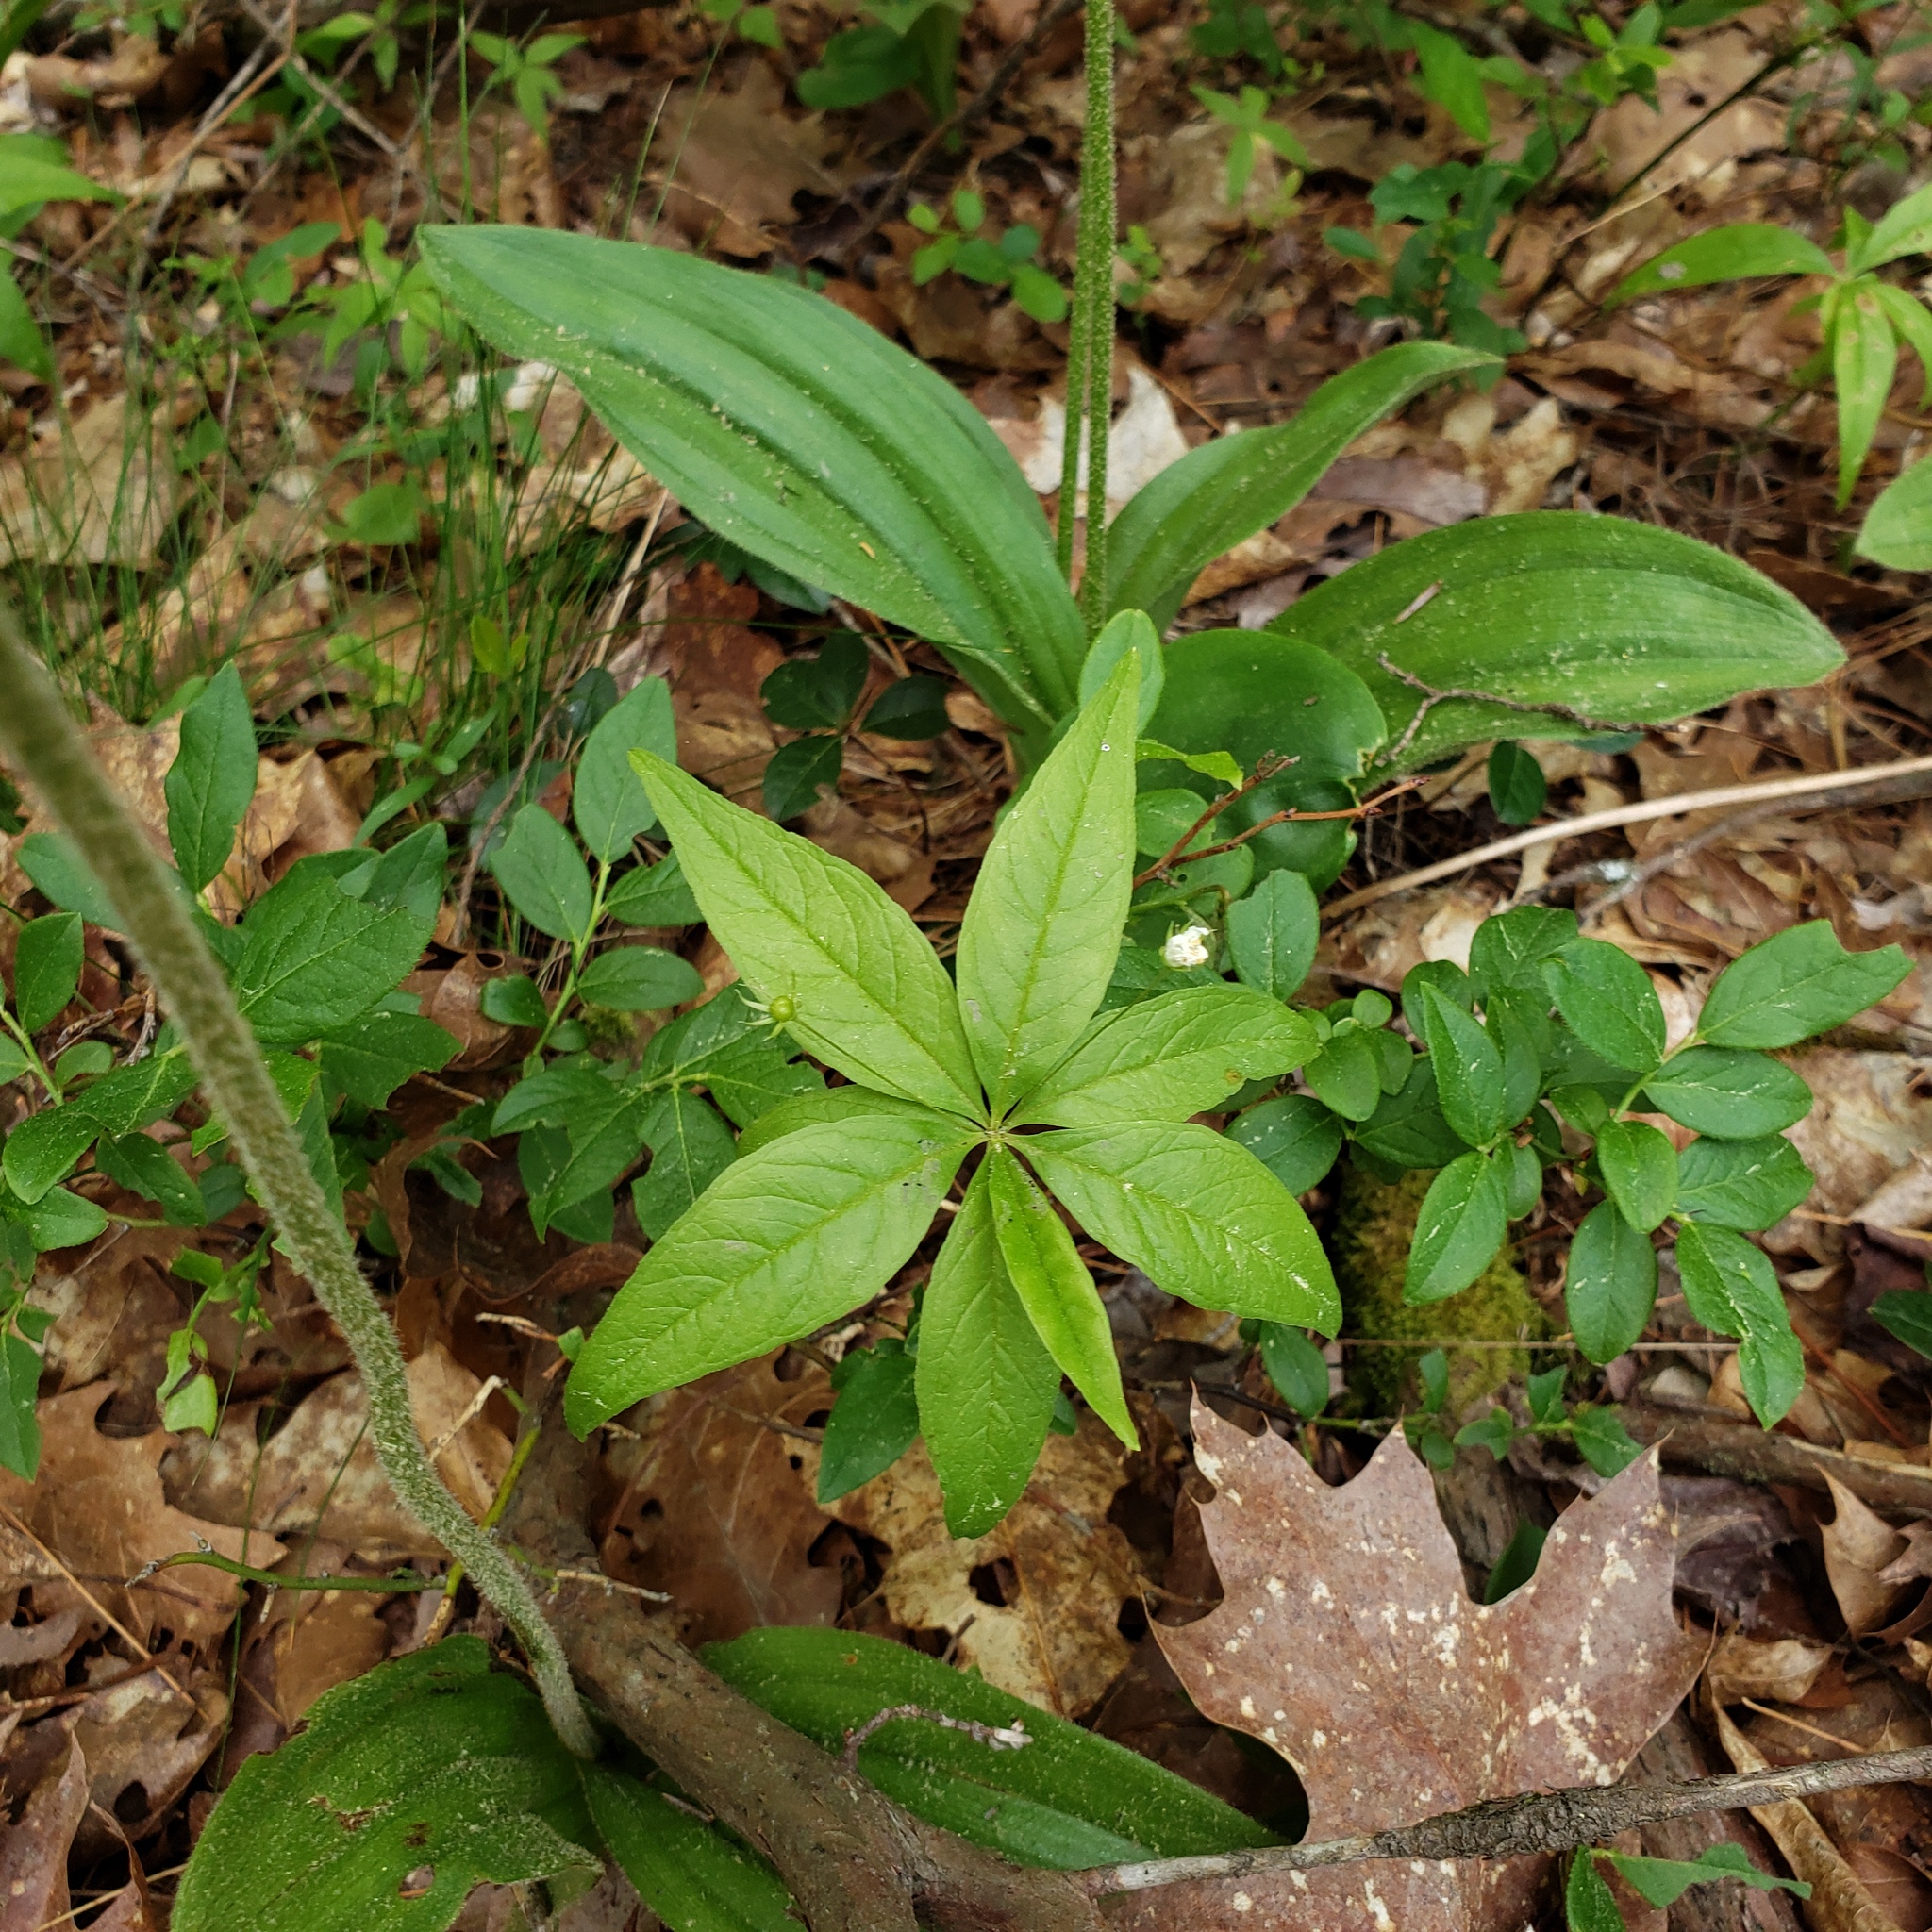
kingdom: Plantae
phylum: Tracheophyta
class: Magnoliopsida
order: Ericales
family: Primulaceae
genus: Lysimachia
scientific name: Lysimachia borealis
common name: American starflower
